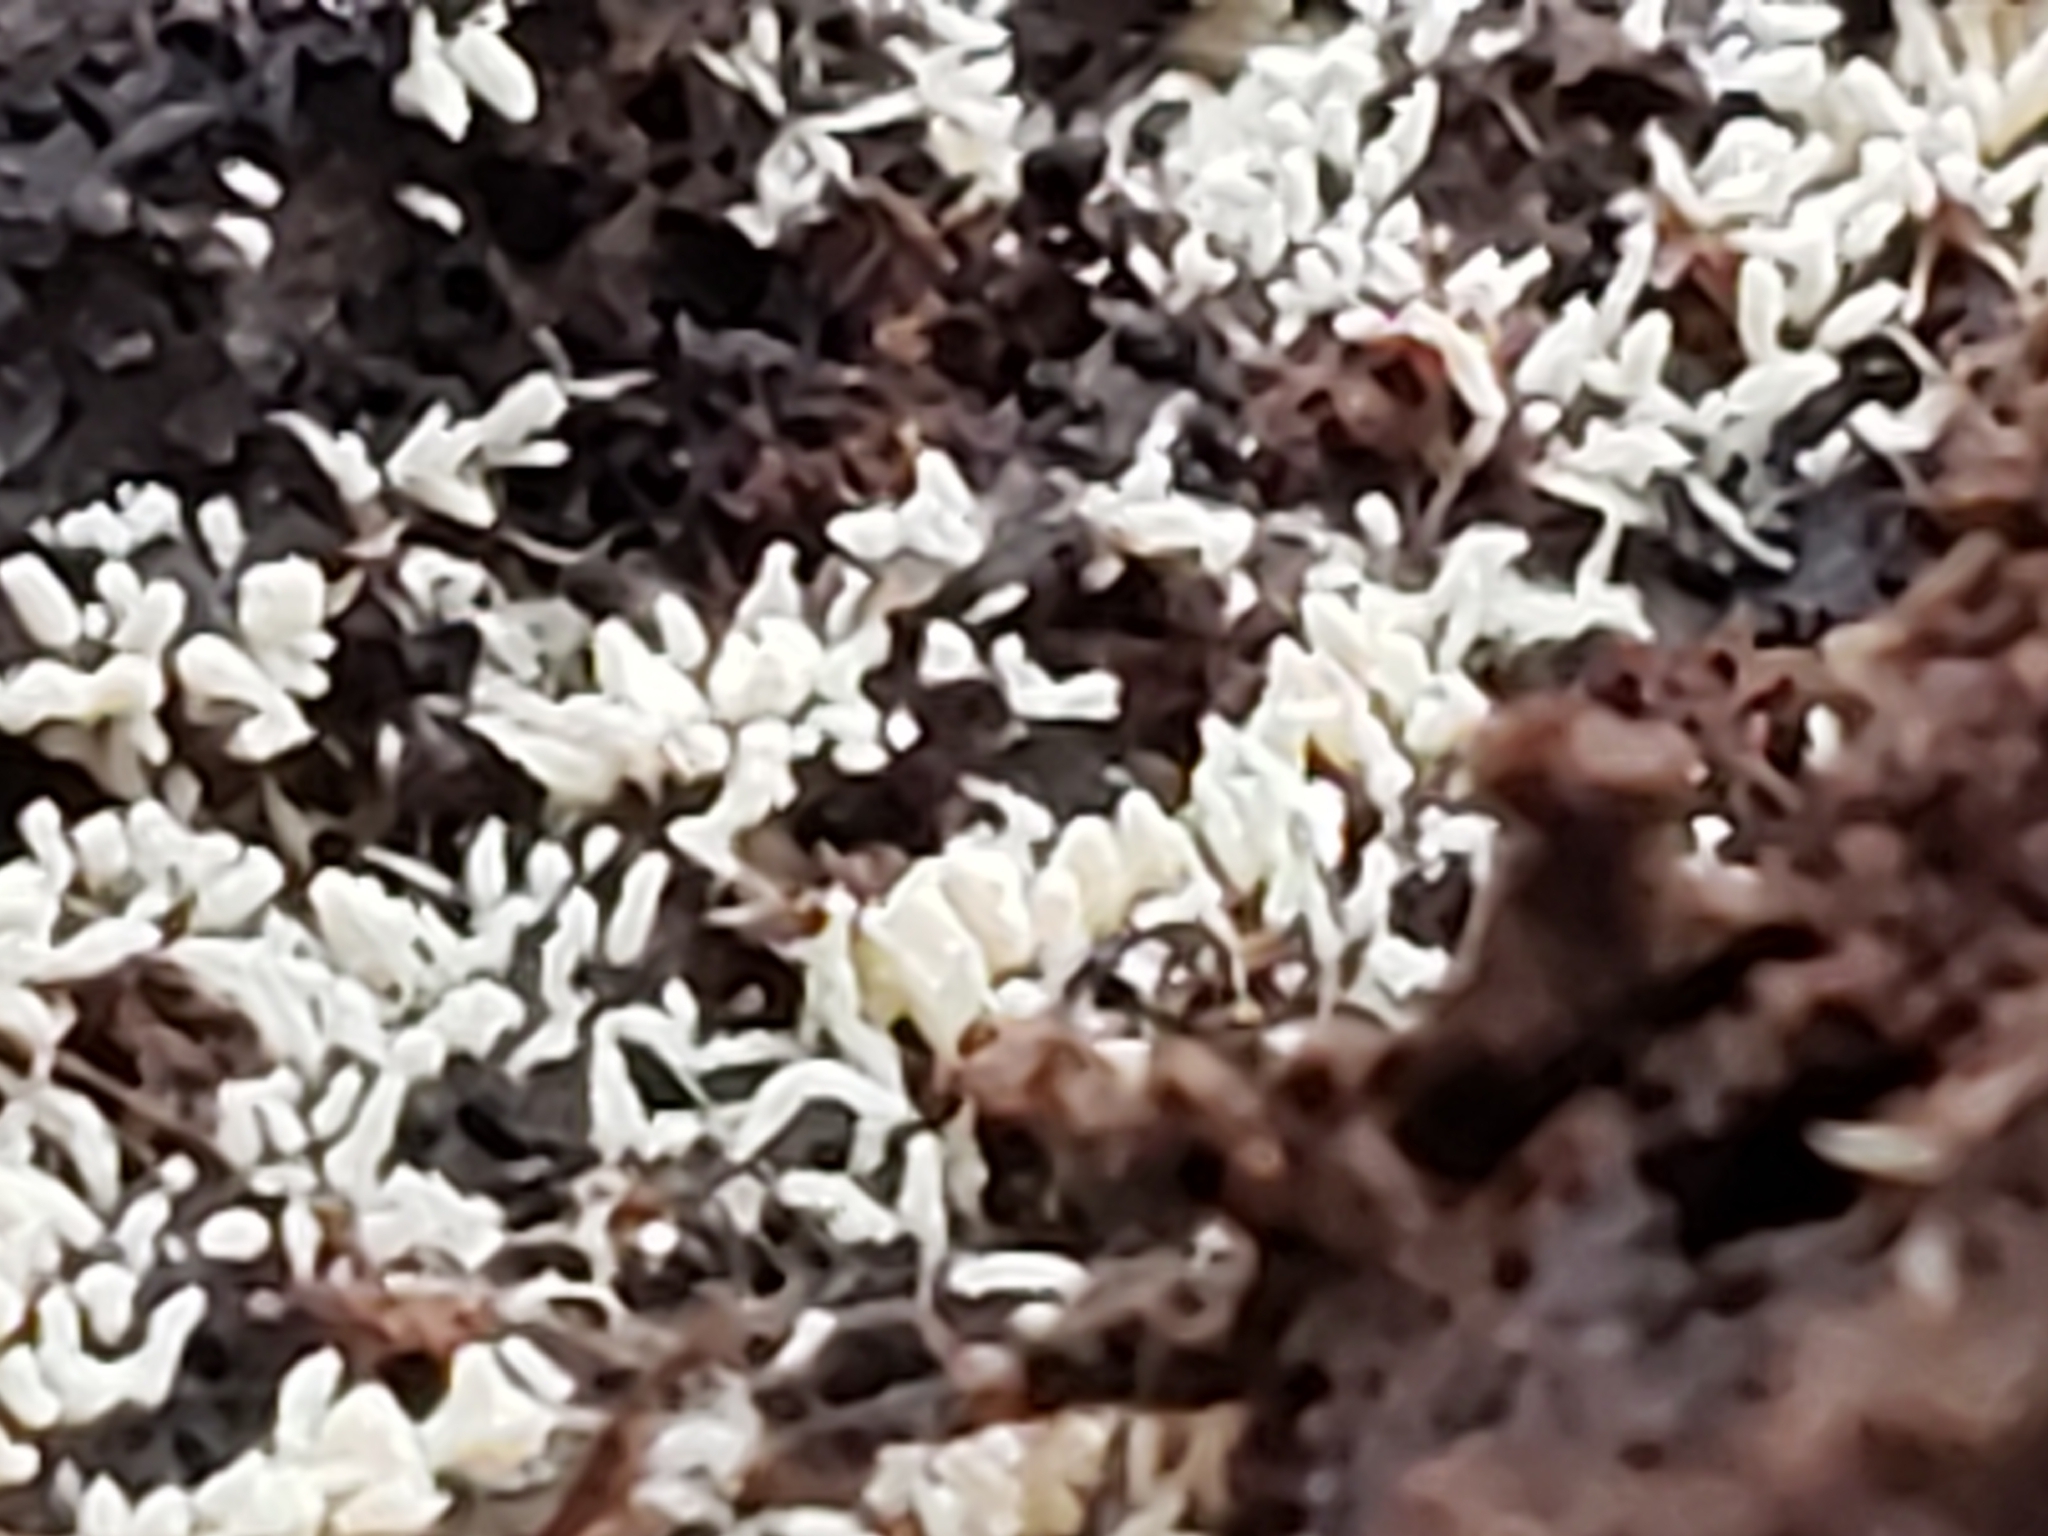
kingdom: Fungi
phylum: Ascomycota
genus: Arthrosporium
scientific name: Arthrosporium candidum
